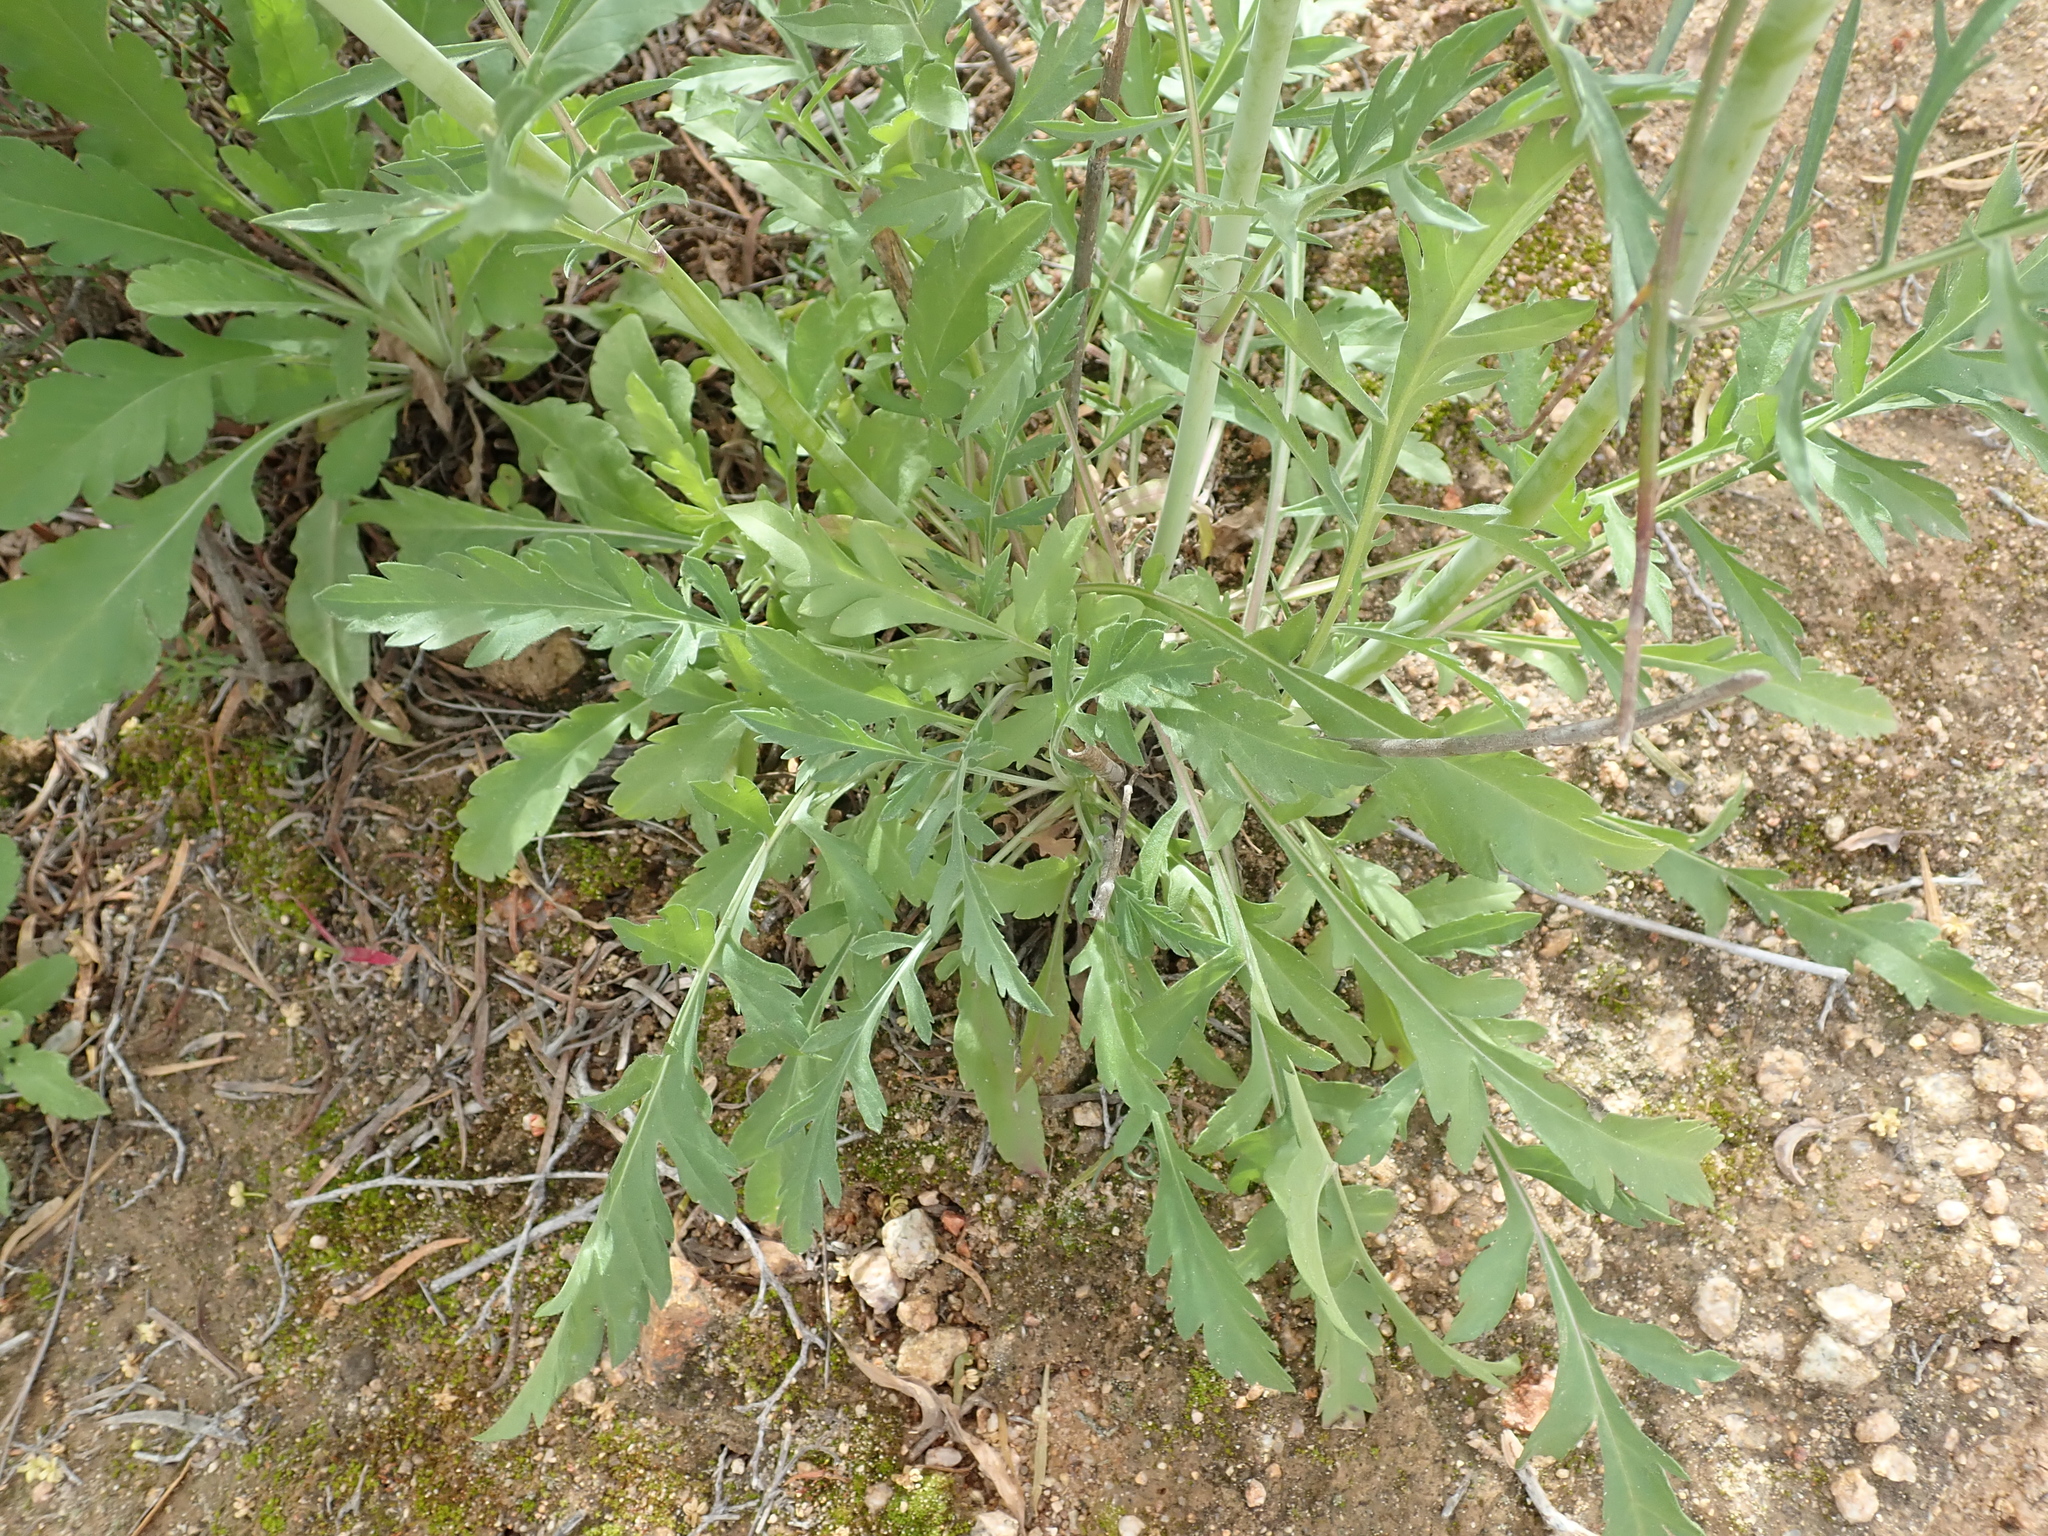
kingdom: Plantae
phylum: Tracheophyta
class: Magnoliopsida
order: Dipsacales
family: Caprifoliaceae
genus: Scabiosa
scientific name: Scabiosa columbaria
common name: Small scabious
